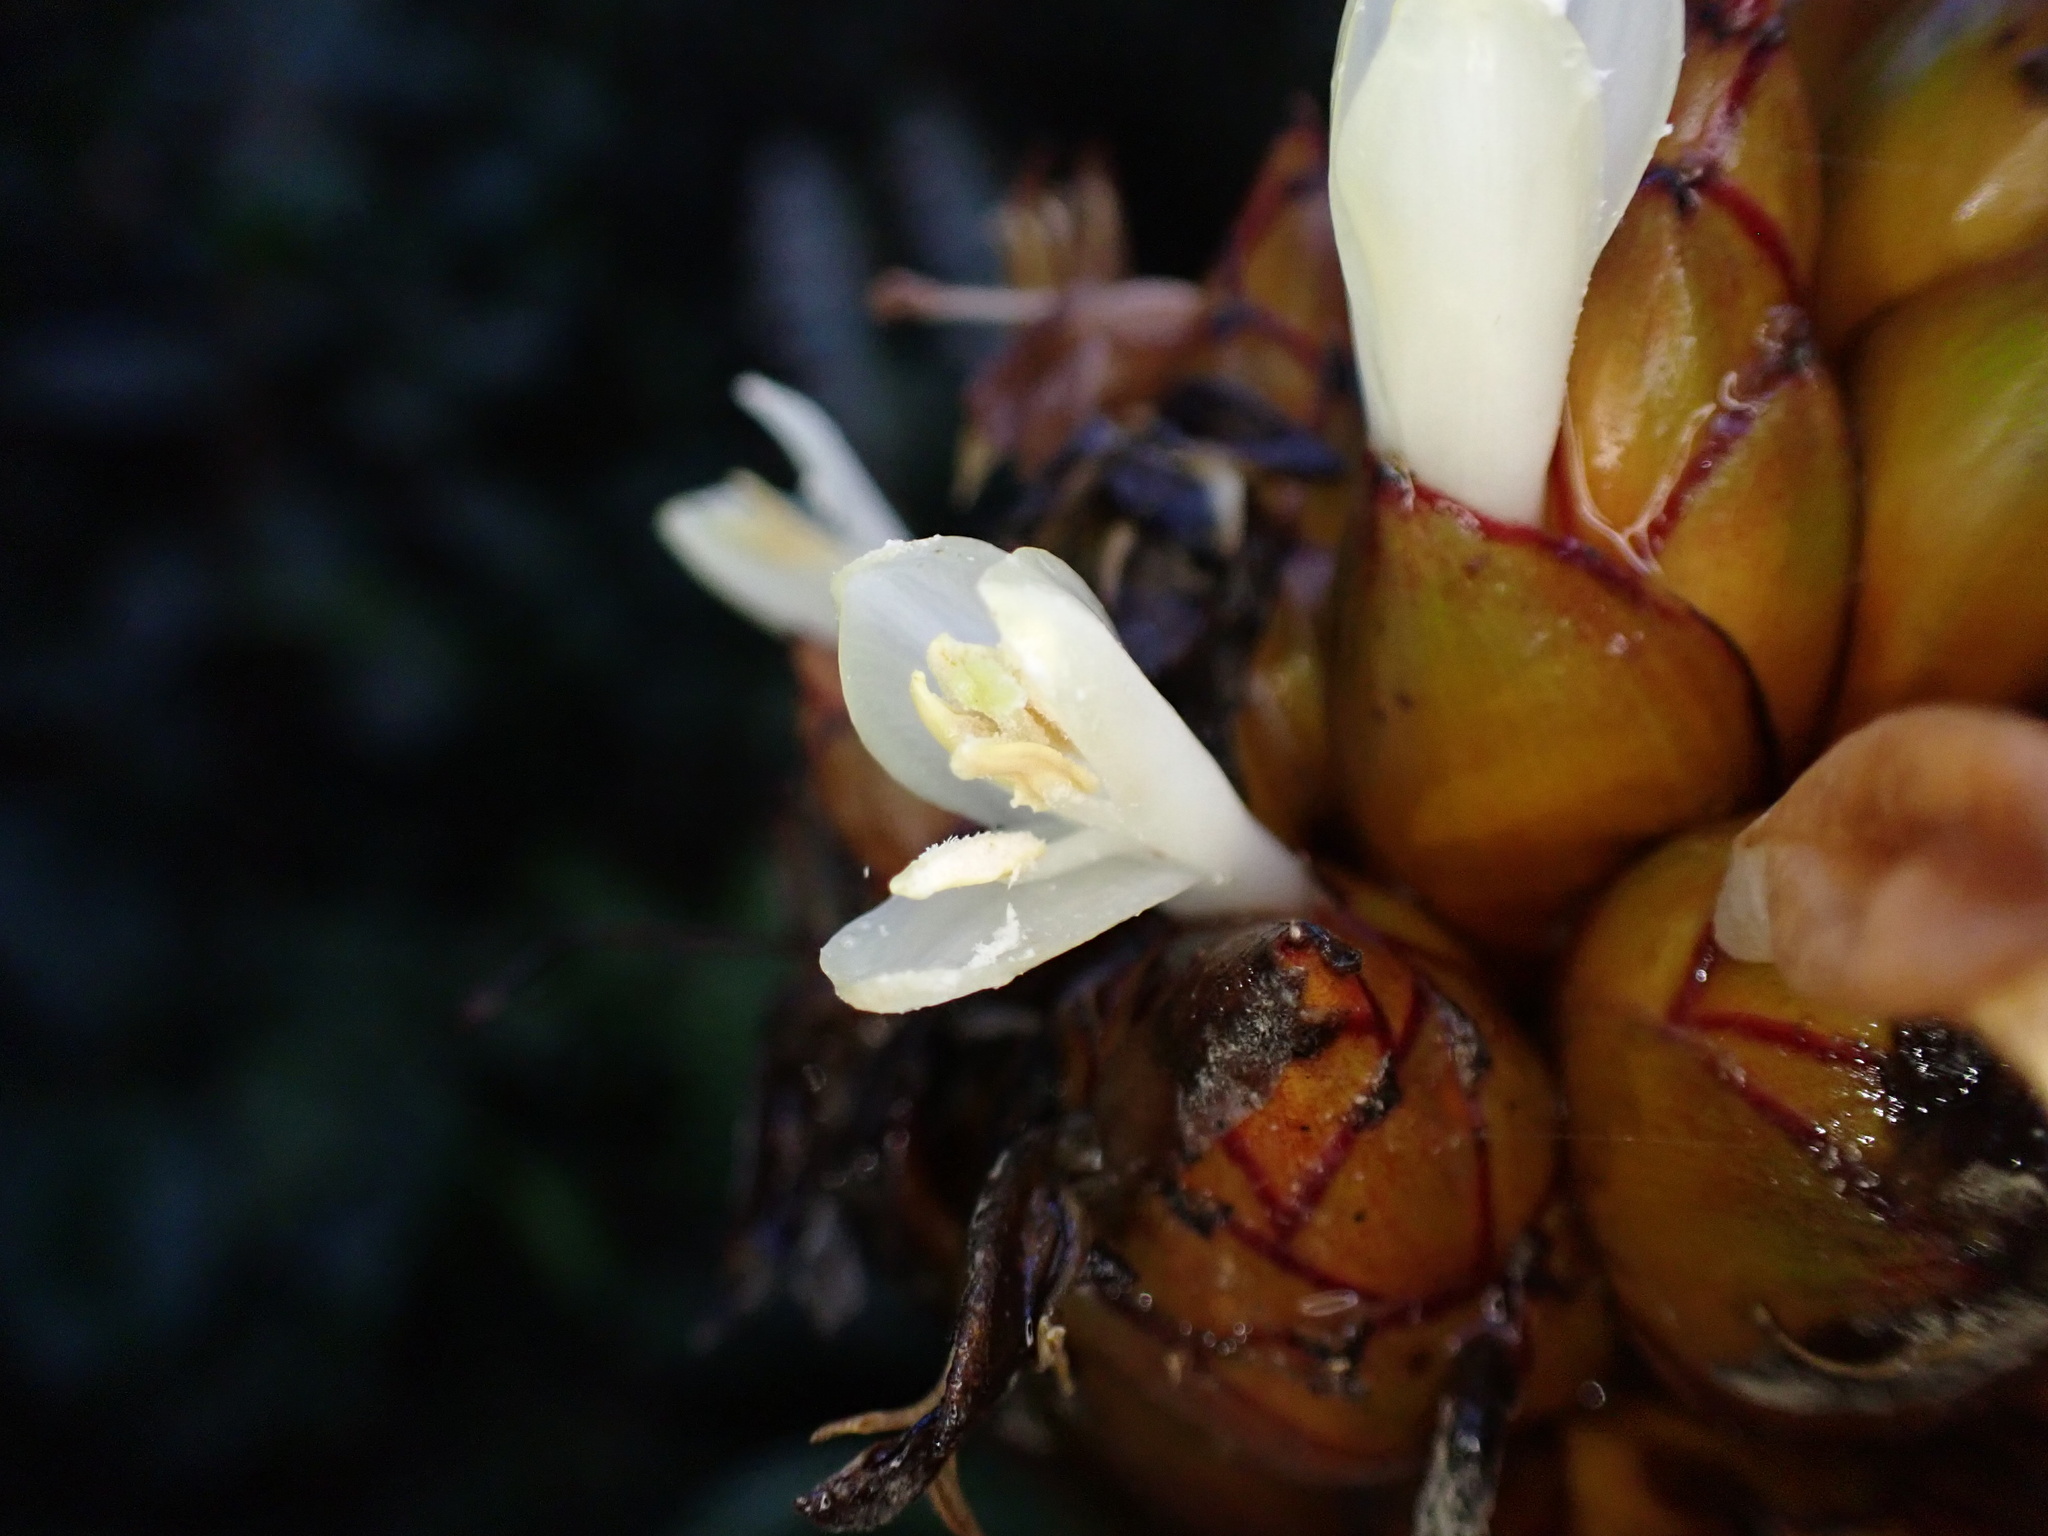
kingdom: Plantae
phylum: Tracheophyta
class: Liliopsida
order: Poales
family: Bromeliaceae
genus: Guzmania
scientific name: Guzmania inkaterrae
